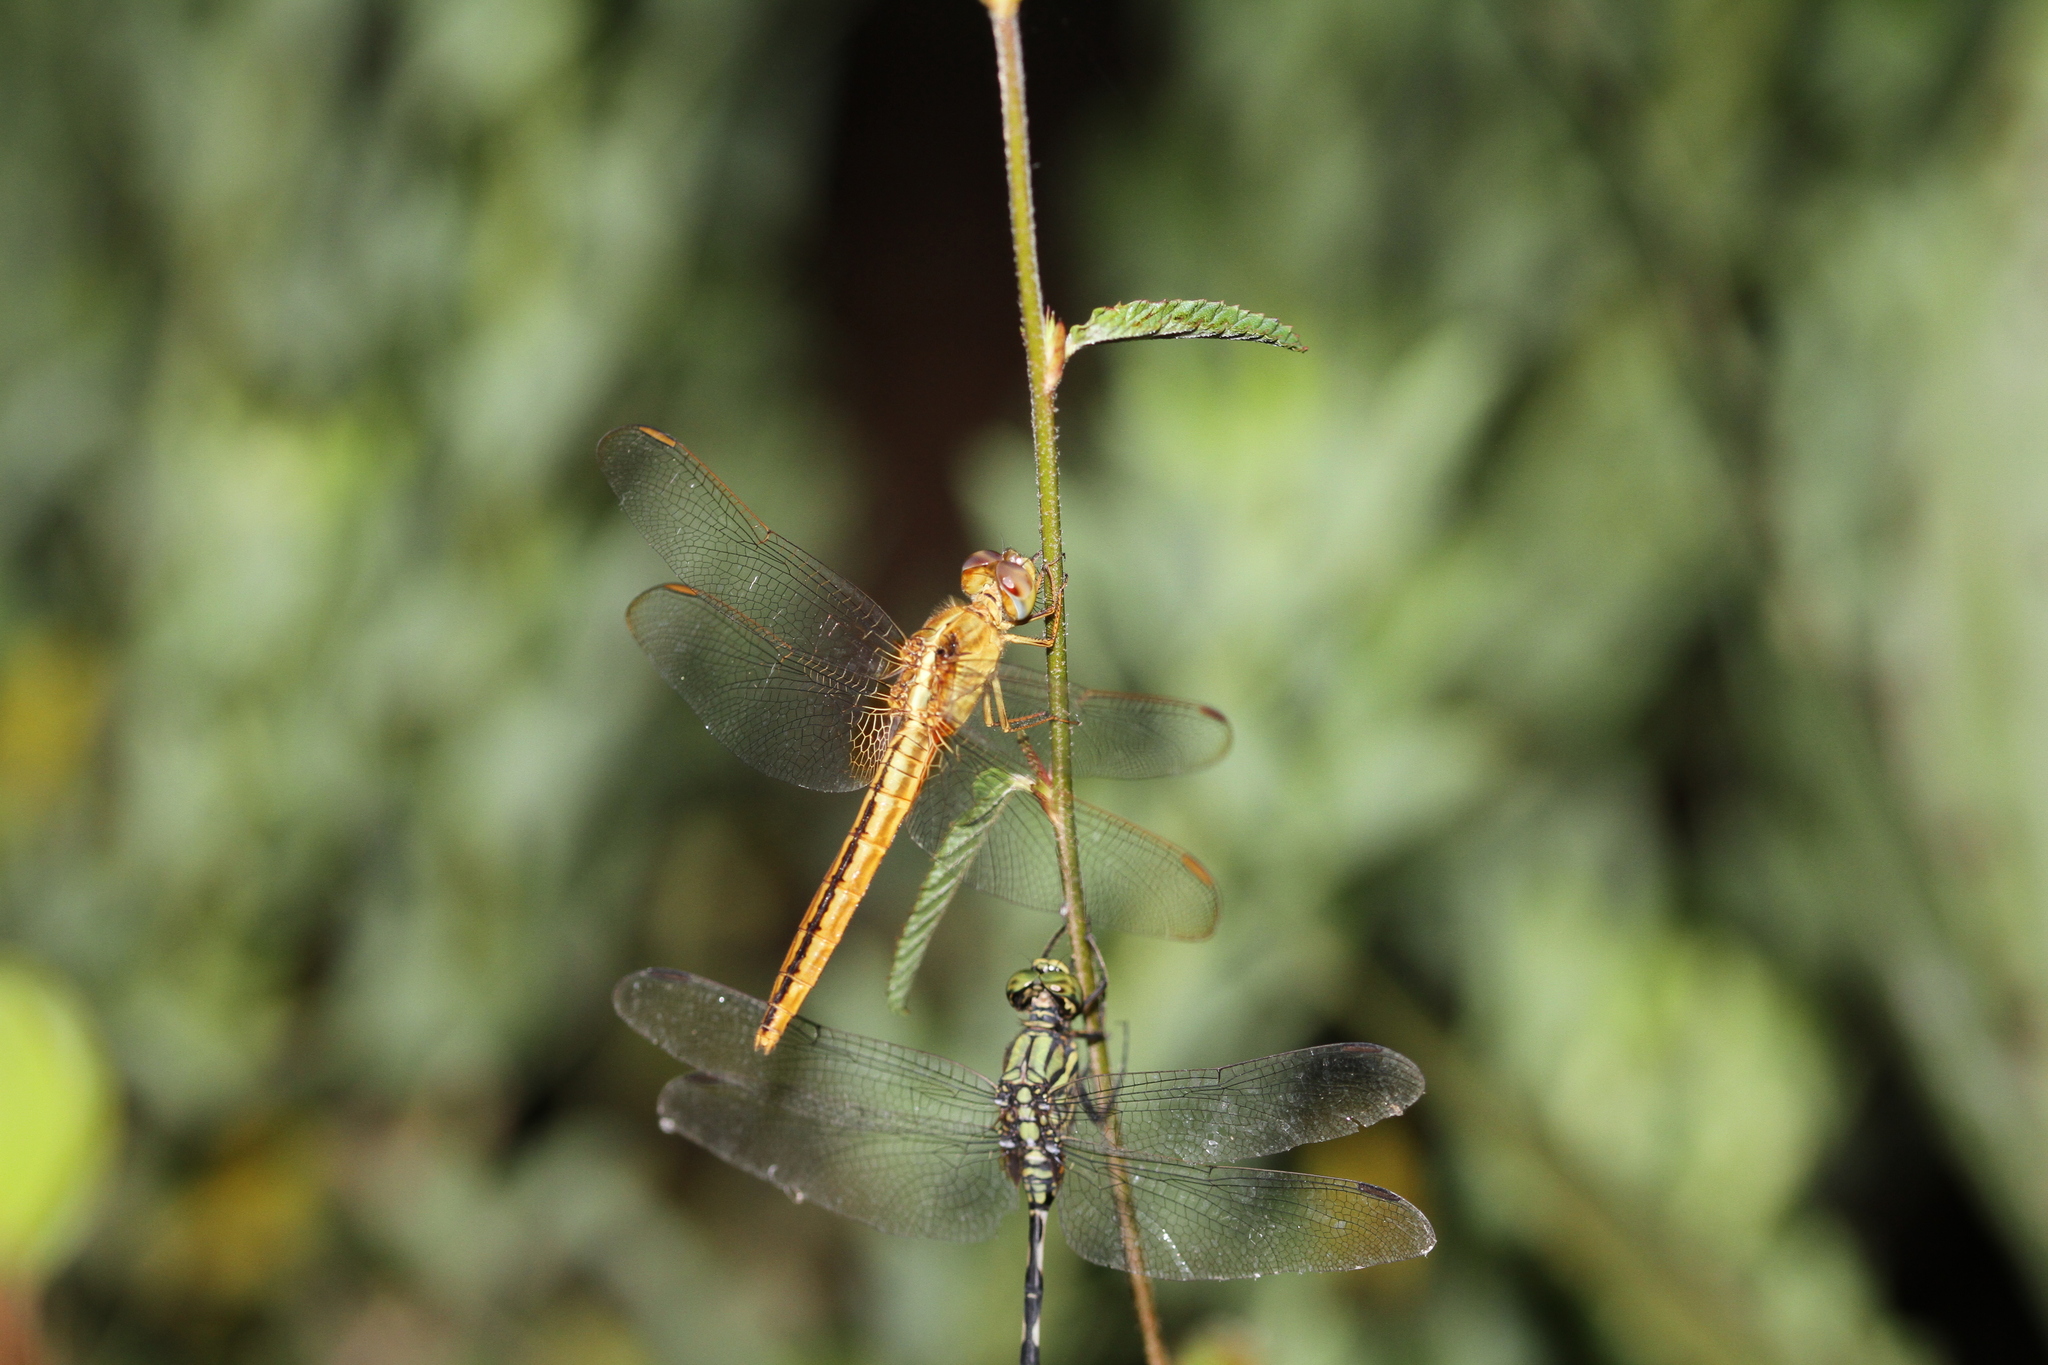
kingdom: Animalia
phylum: Arthropoda
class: Insecta
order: Odonata
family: Libellulidae
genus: Crocothemis
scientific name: Crocothemis servilia
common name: Scarlet skimmer
